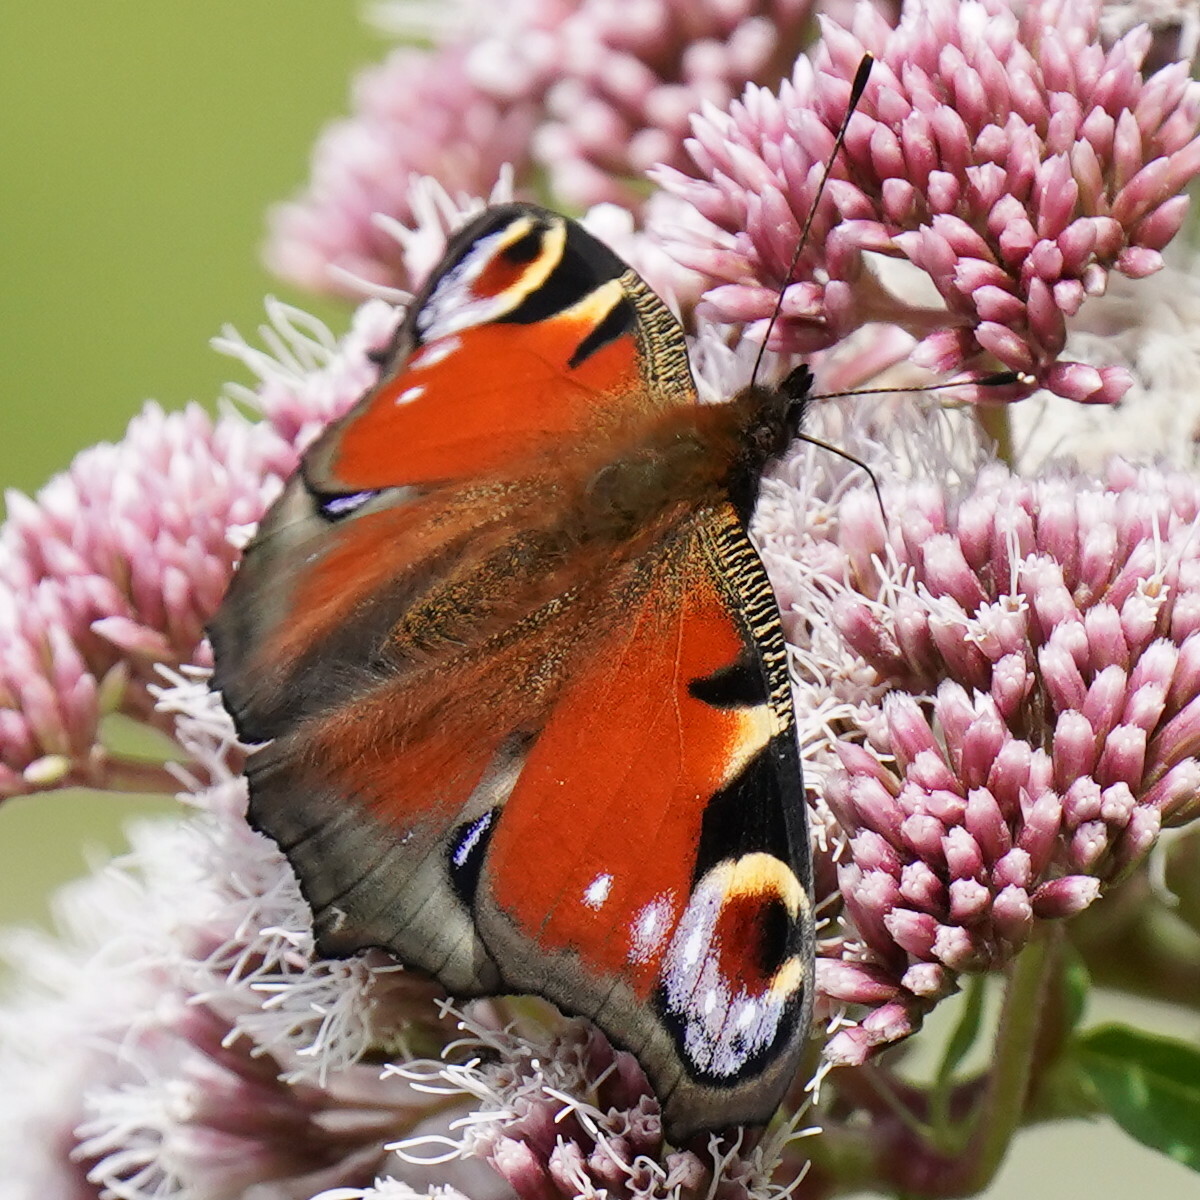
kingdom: Animalia
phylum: Arthropoda
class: Insecta
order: Lepidoptera
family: Nymphalidae
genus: Aglais
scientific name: Aglais io
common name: Peacock
